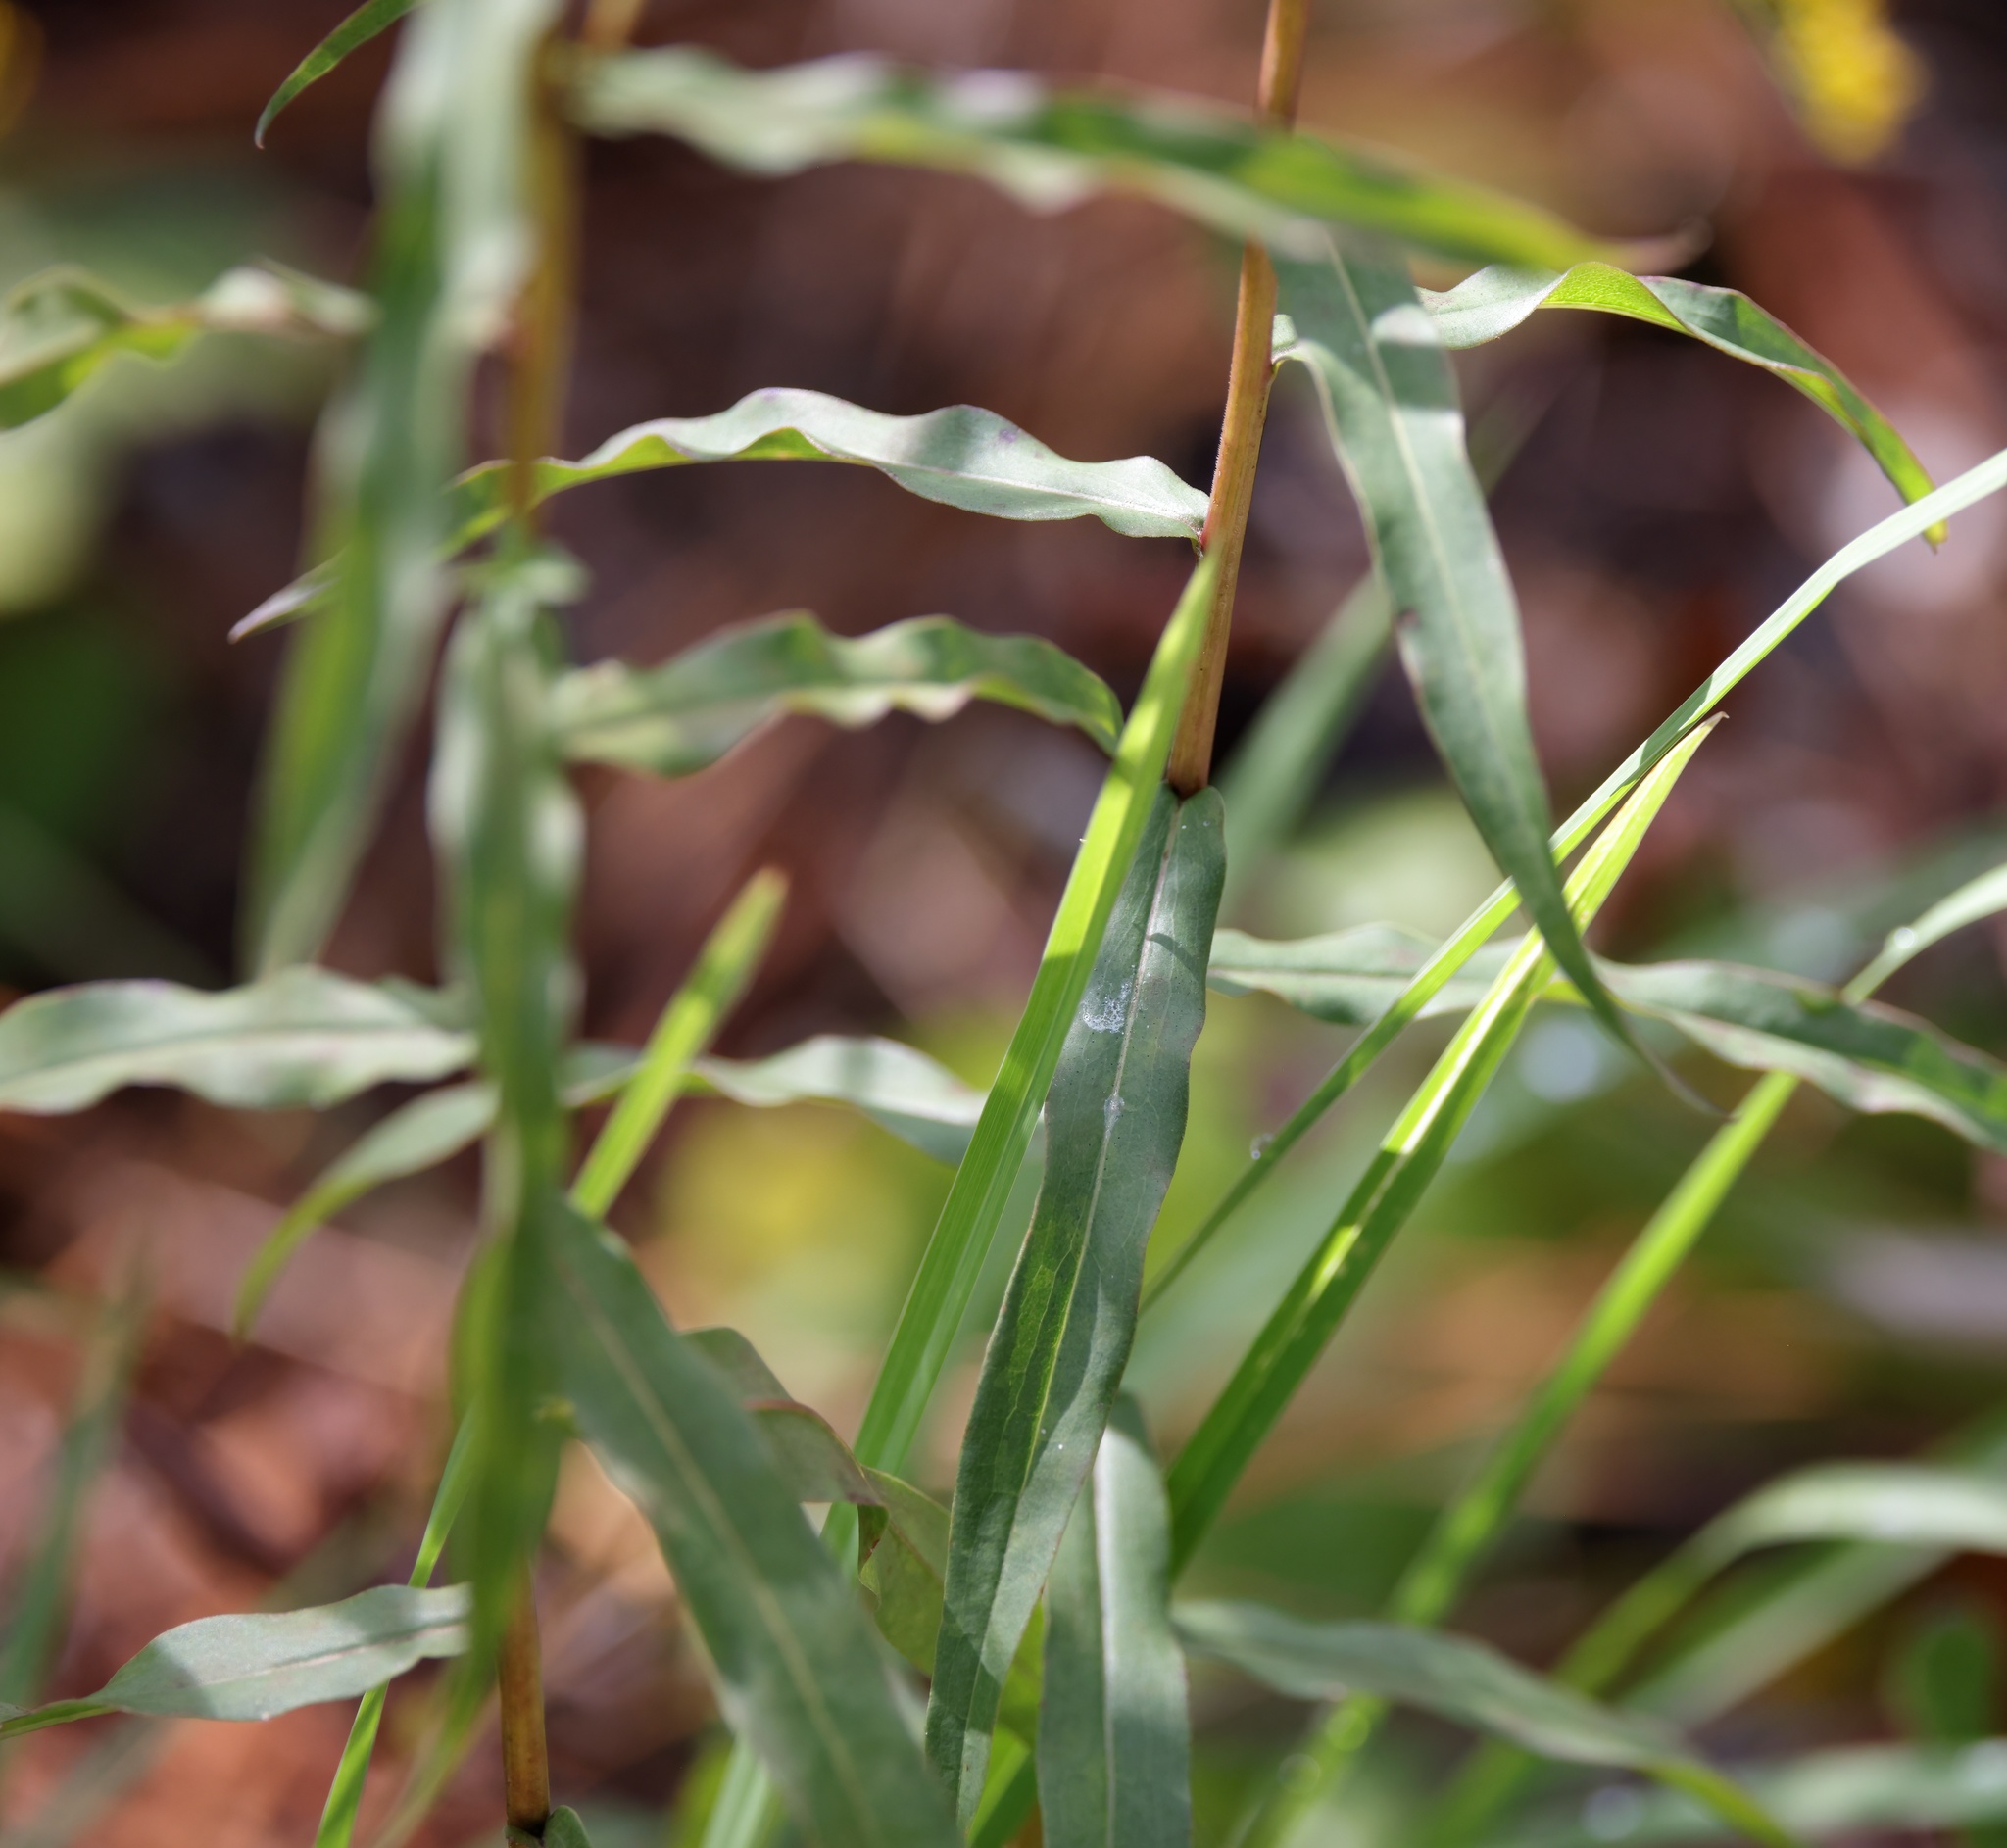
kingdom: Plantae
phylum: Tracheophyta
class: Magnoliopsida
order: Asterales
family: Asteraceae
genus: Solidago
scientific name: Solidago odora
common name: Anise-scented goldenrod
